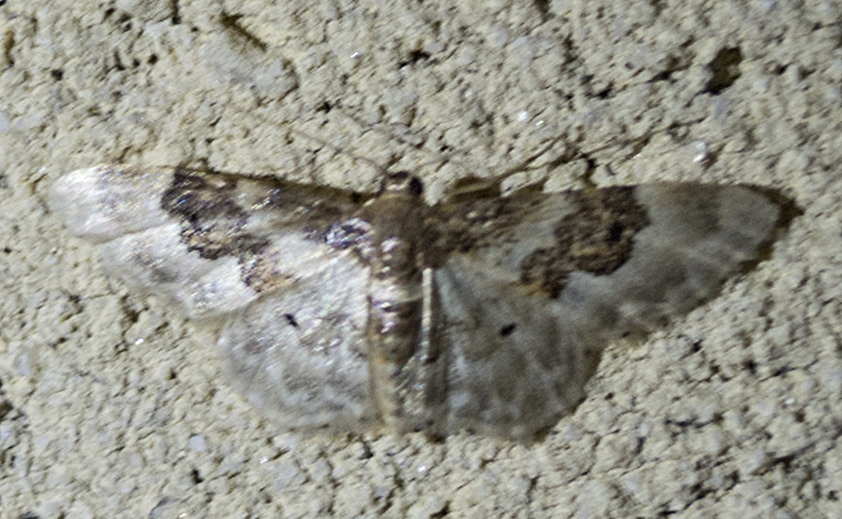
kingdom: Animalia
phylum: Arthropoda
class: Insecta
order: Lepidoptera
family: Geometridae
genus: Idaea
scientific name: Idaea rusticata
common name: Least carpet
